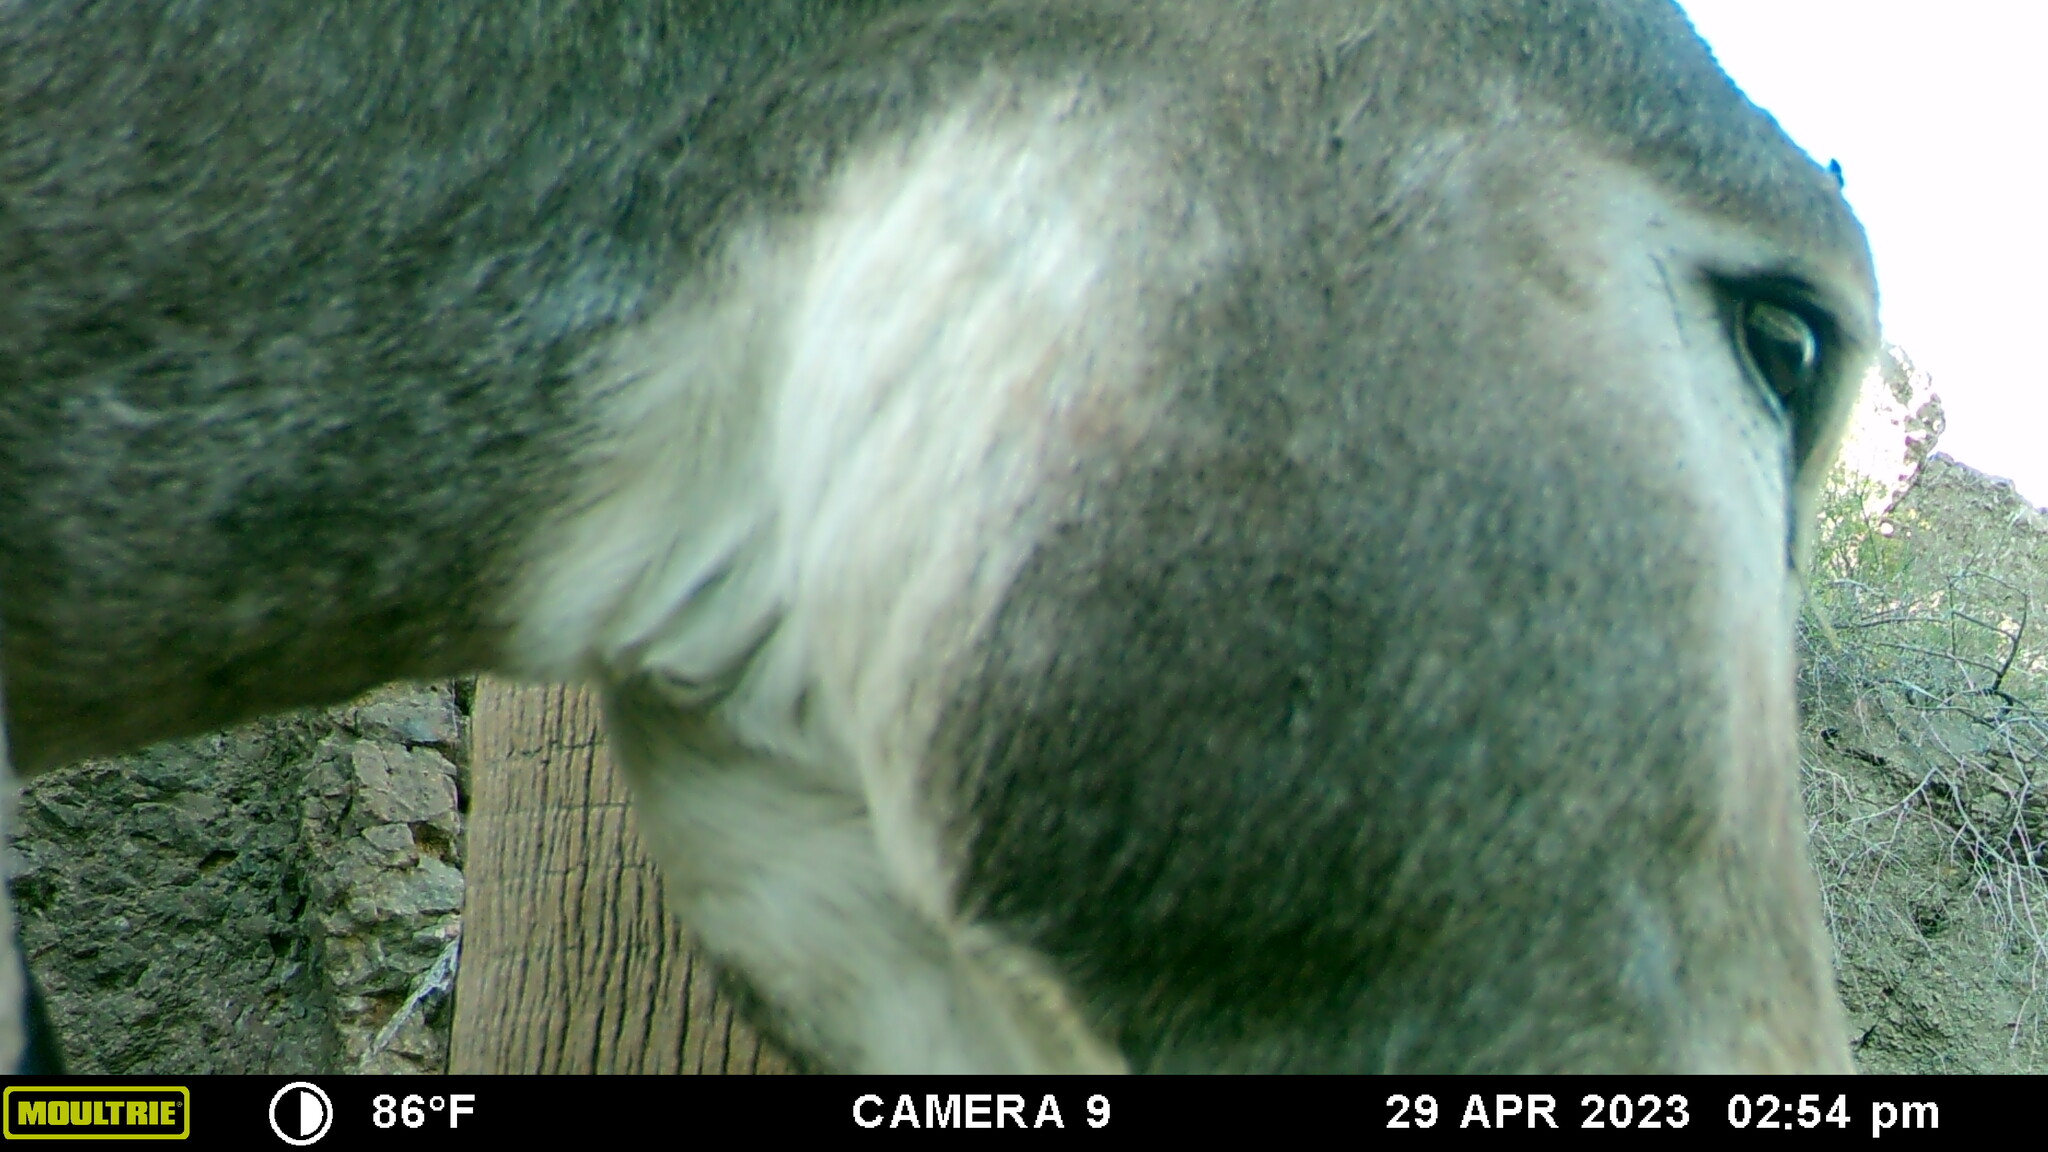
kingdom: Animalia
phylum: Chordata
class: Mammalia
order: Perissodactyla
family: Equidae
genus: Equus
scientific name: Equus asinus
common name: Ass
